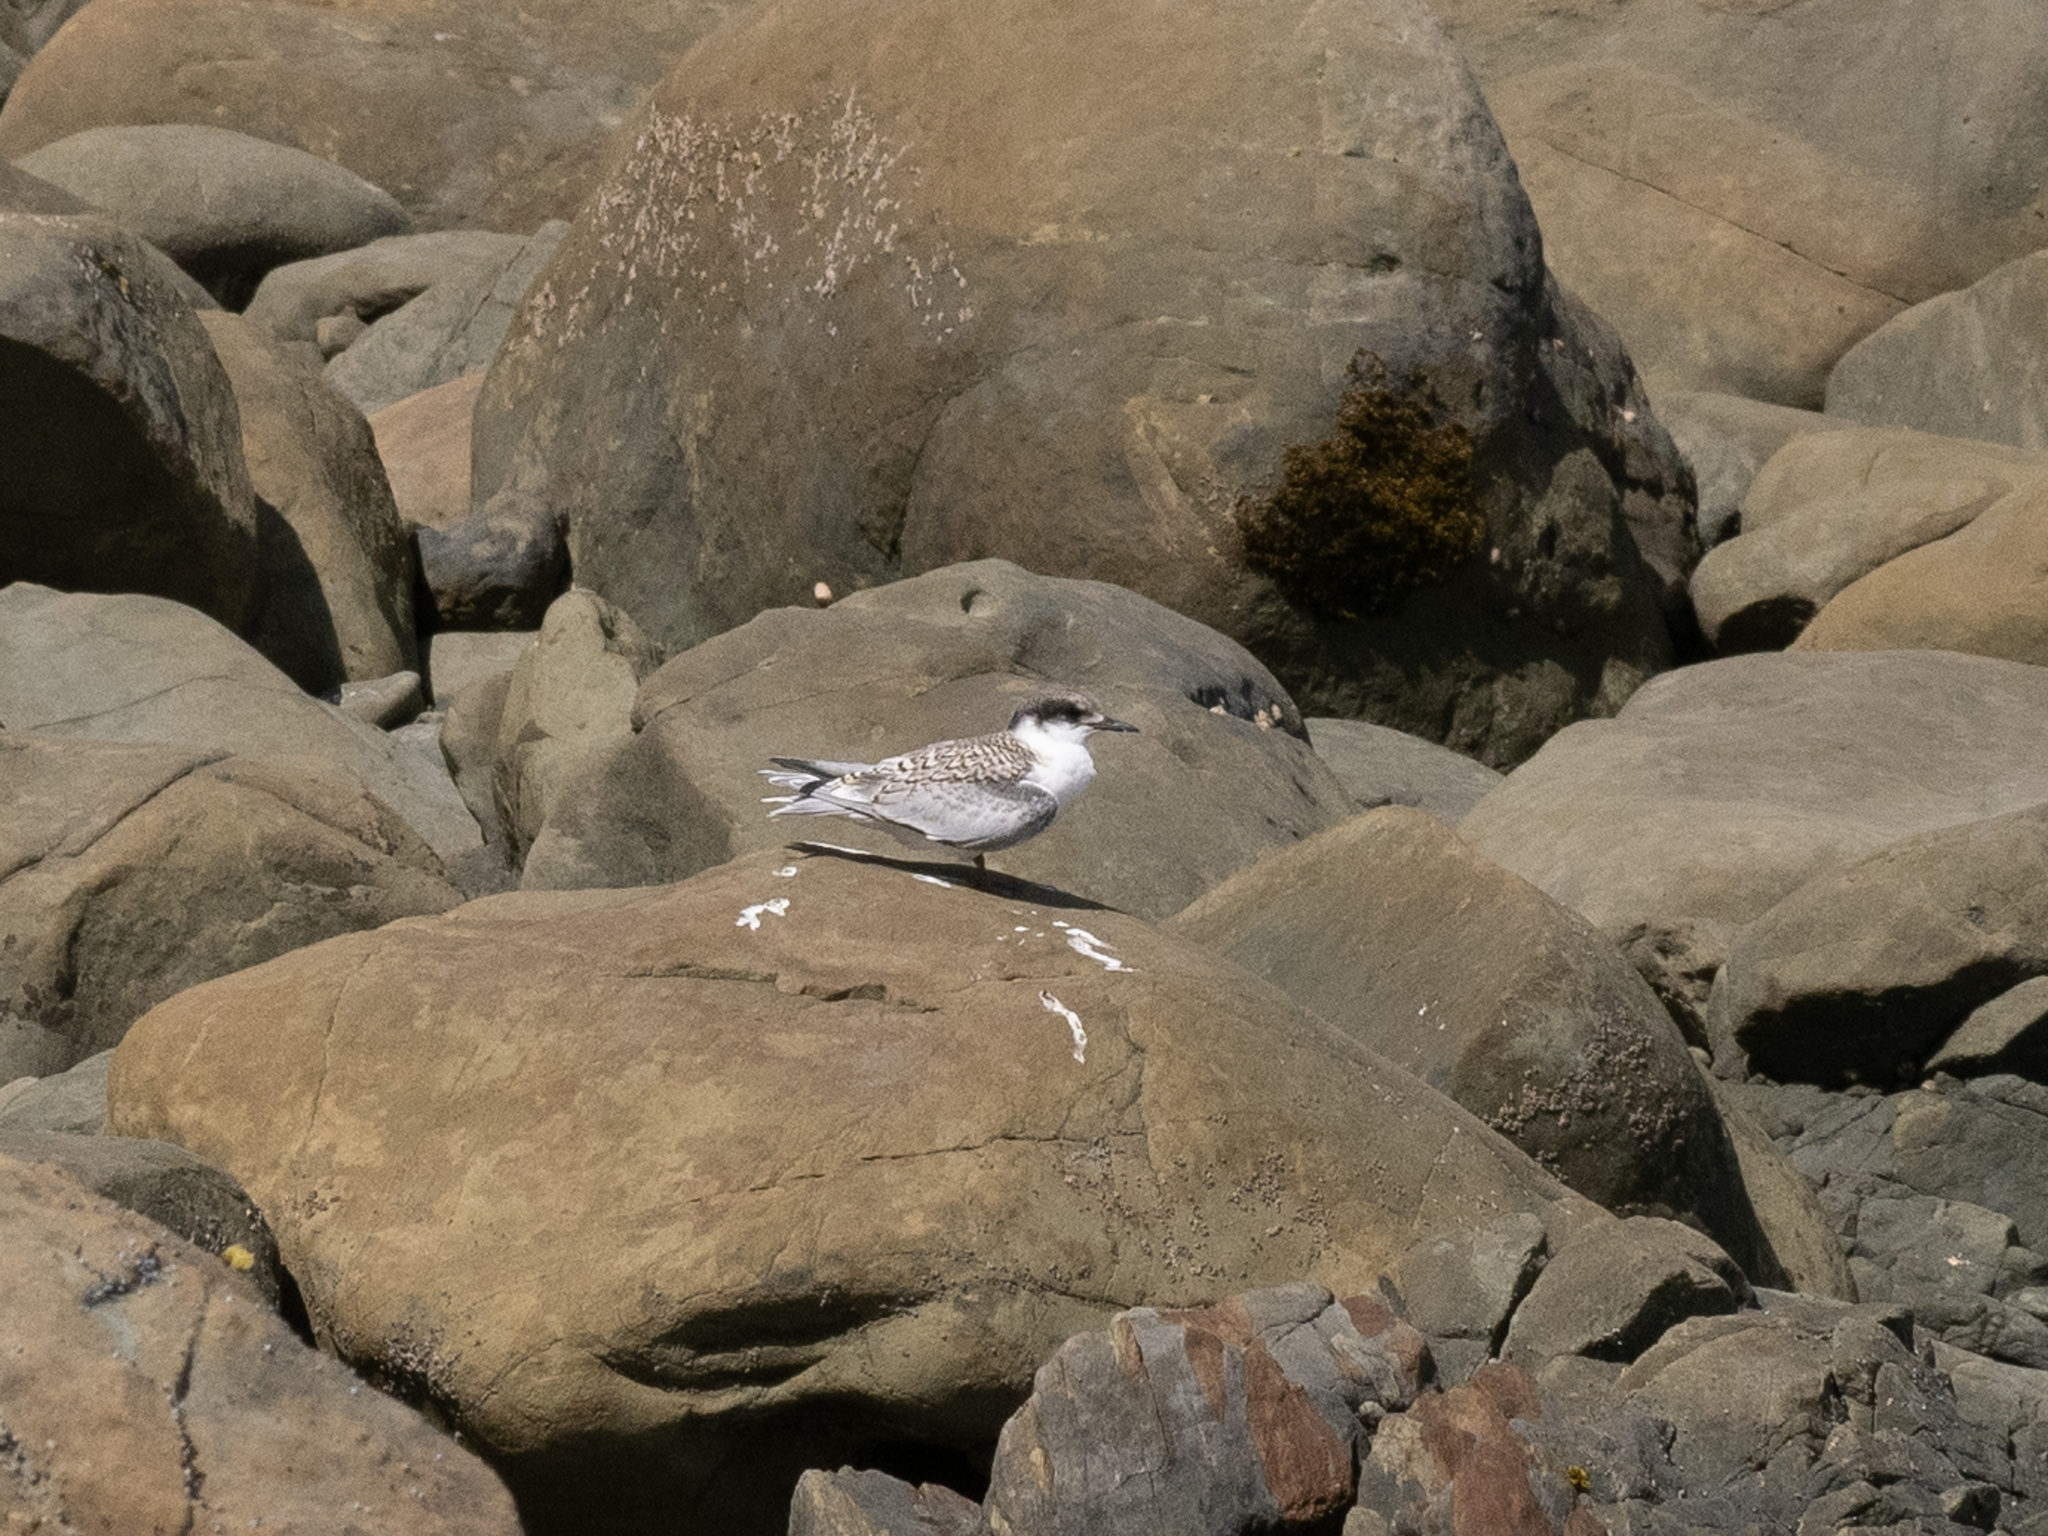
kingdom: Animalia
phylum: Chordata
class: Aves
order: Charadriiformes
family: Laridae
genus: Sterna
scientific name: Sterna striata
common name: White-fronted tern
